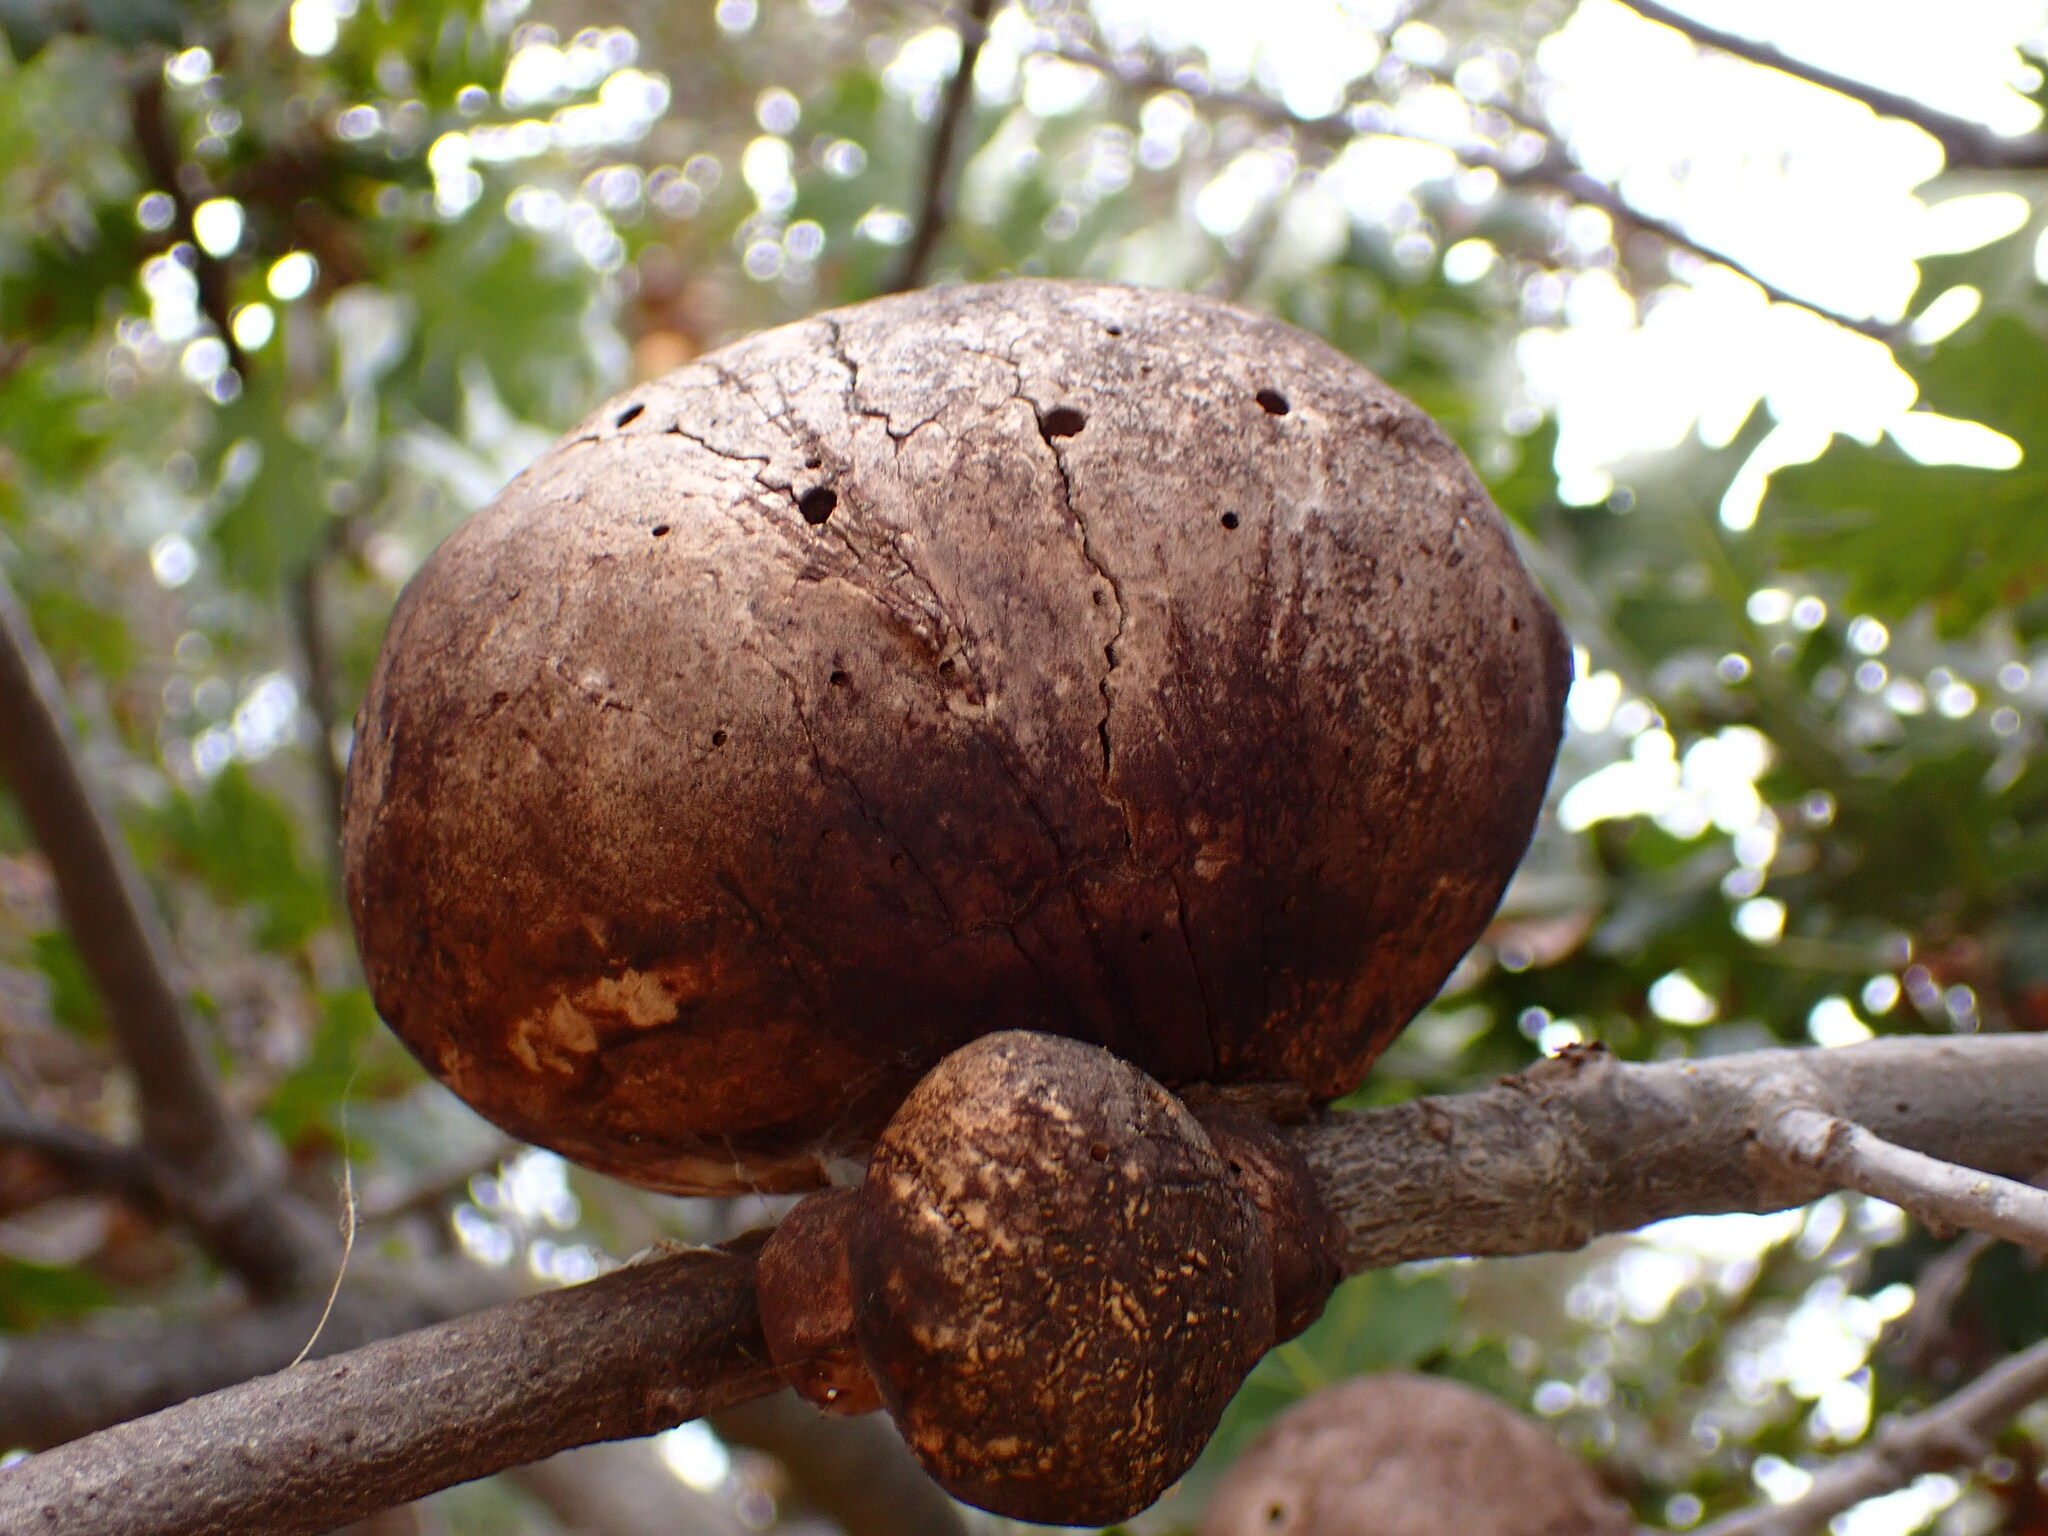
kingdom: Animalia
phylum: Arthropoda
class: Insecta
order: Hymenoptera
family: Cynipidae
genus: Andricus
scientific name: Andricus quercuscalifornicus
